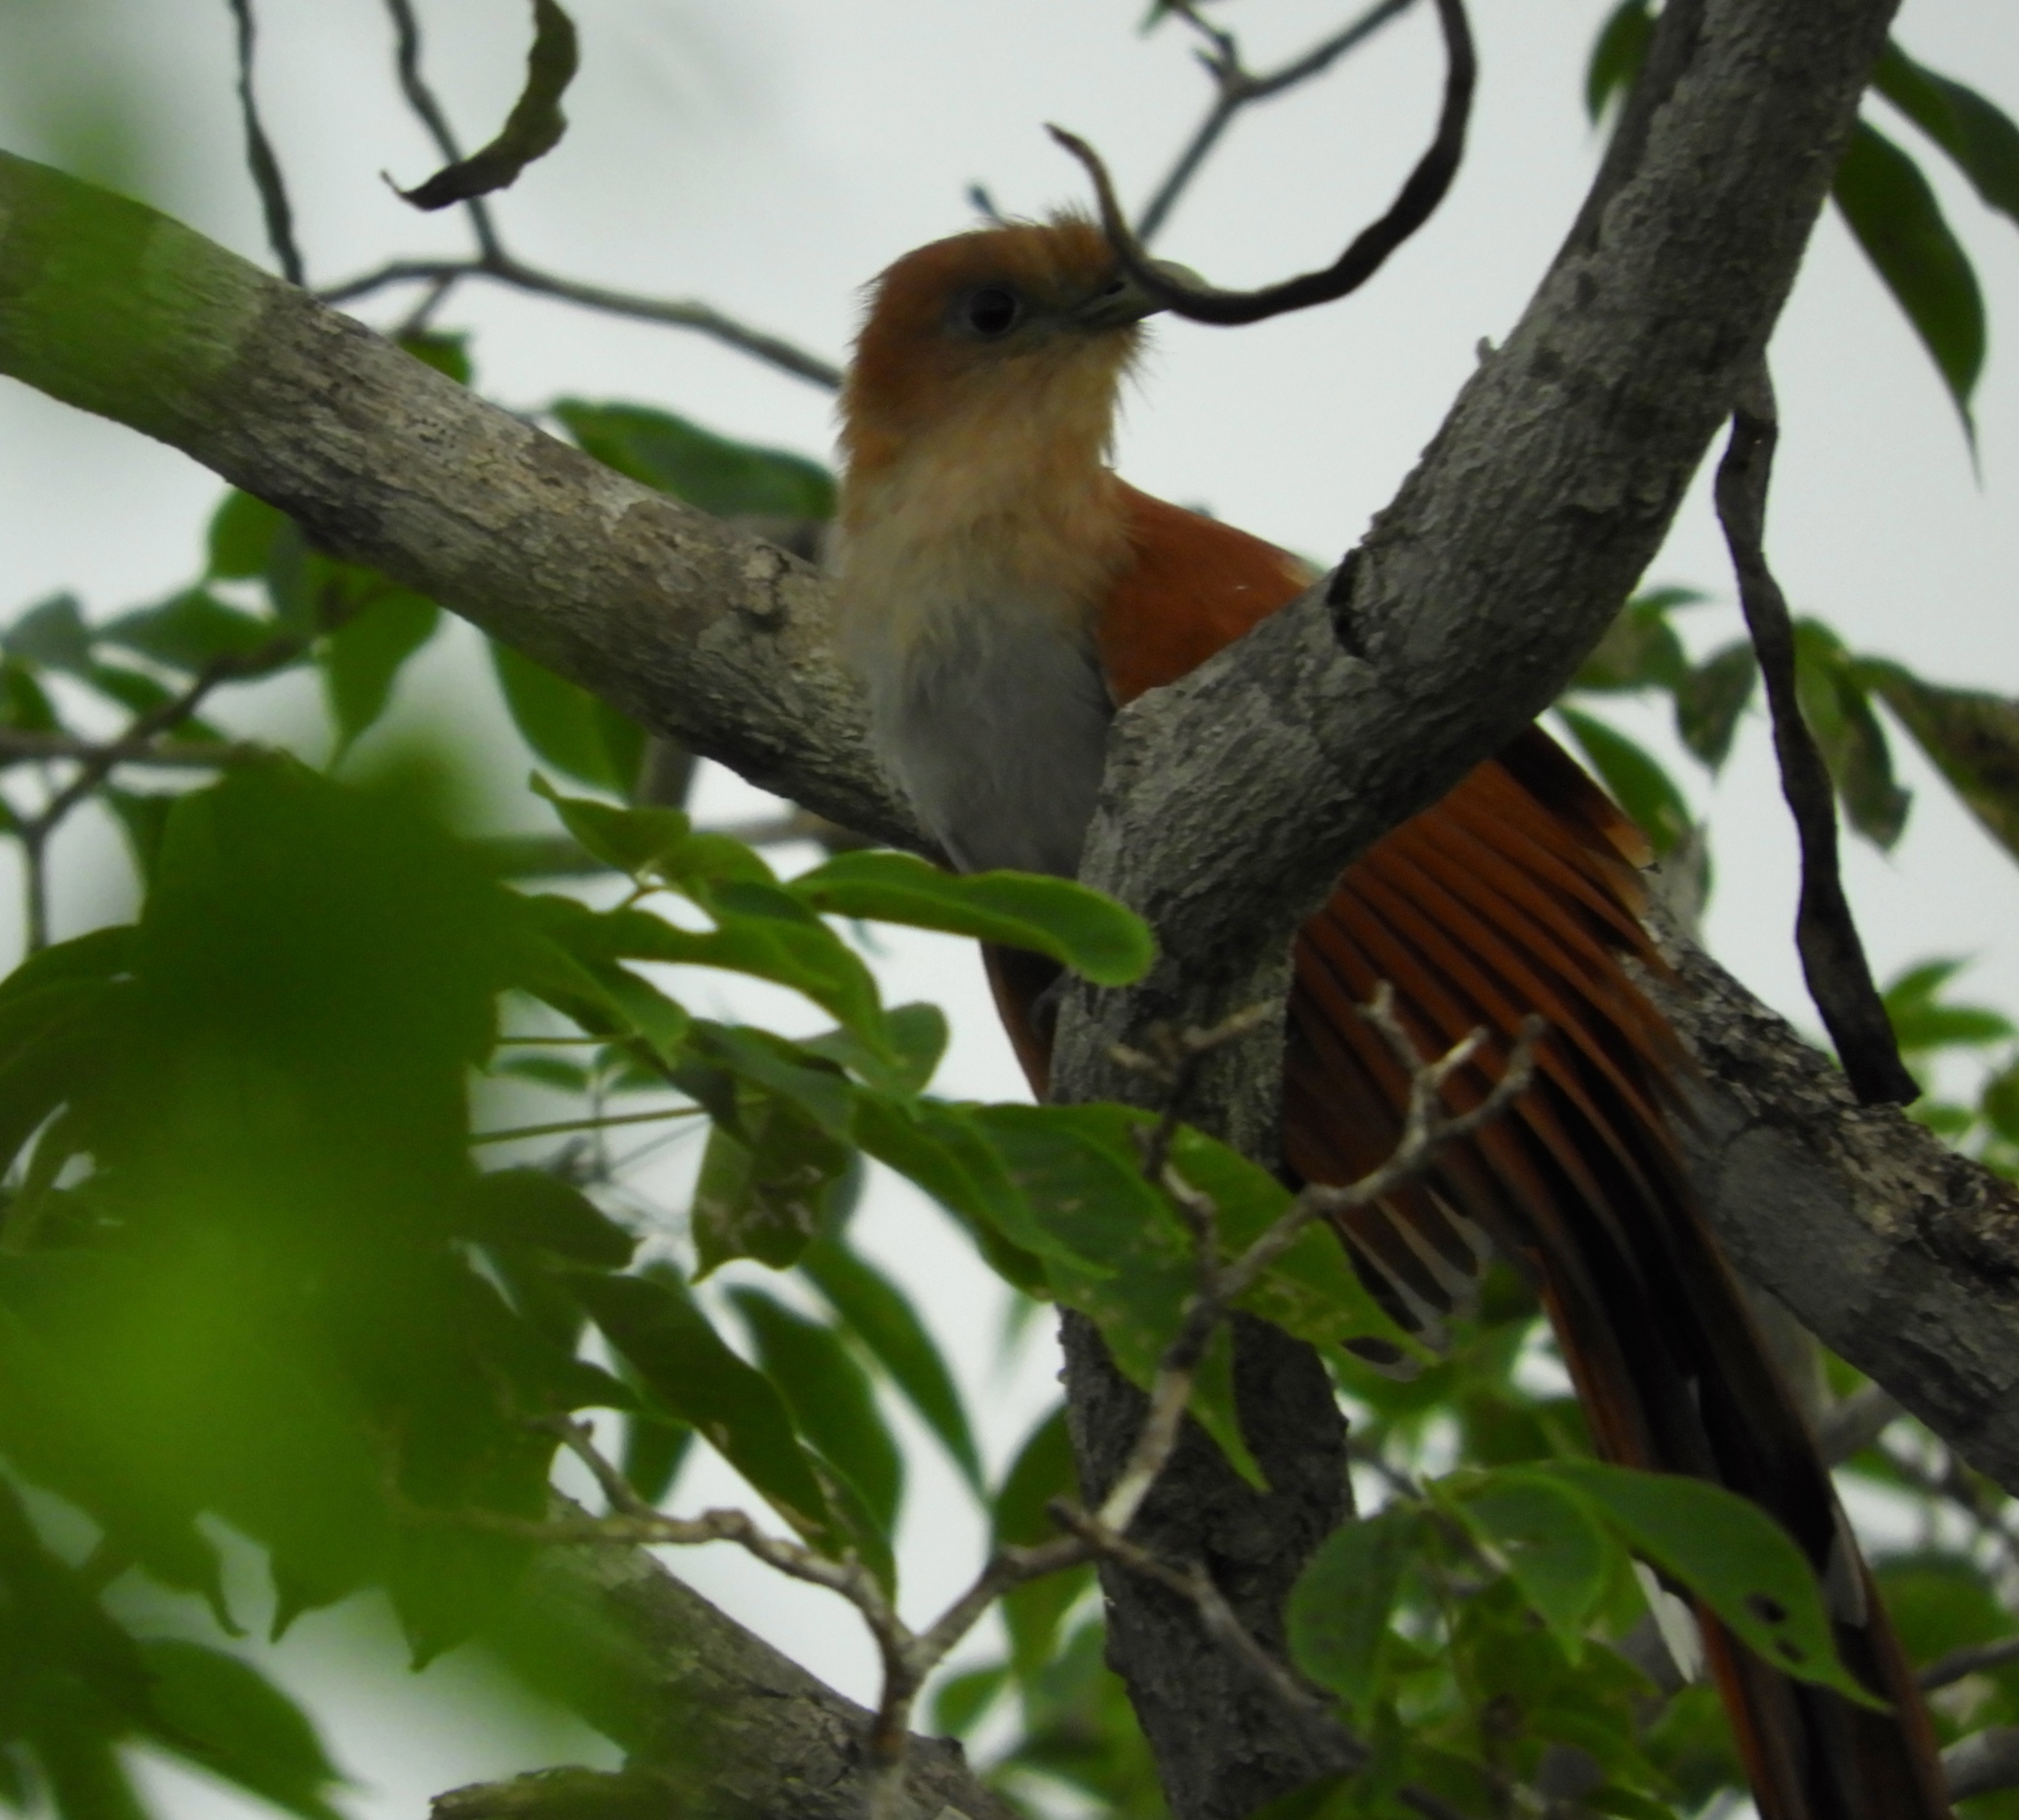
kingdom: Animalia
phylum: Chordata
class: Aves
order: Cuculiformes
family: Cuculidae
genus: Piaya
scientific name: Piaya cayana
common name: Squirrel cuckoo
